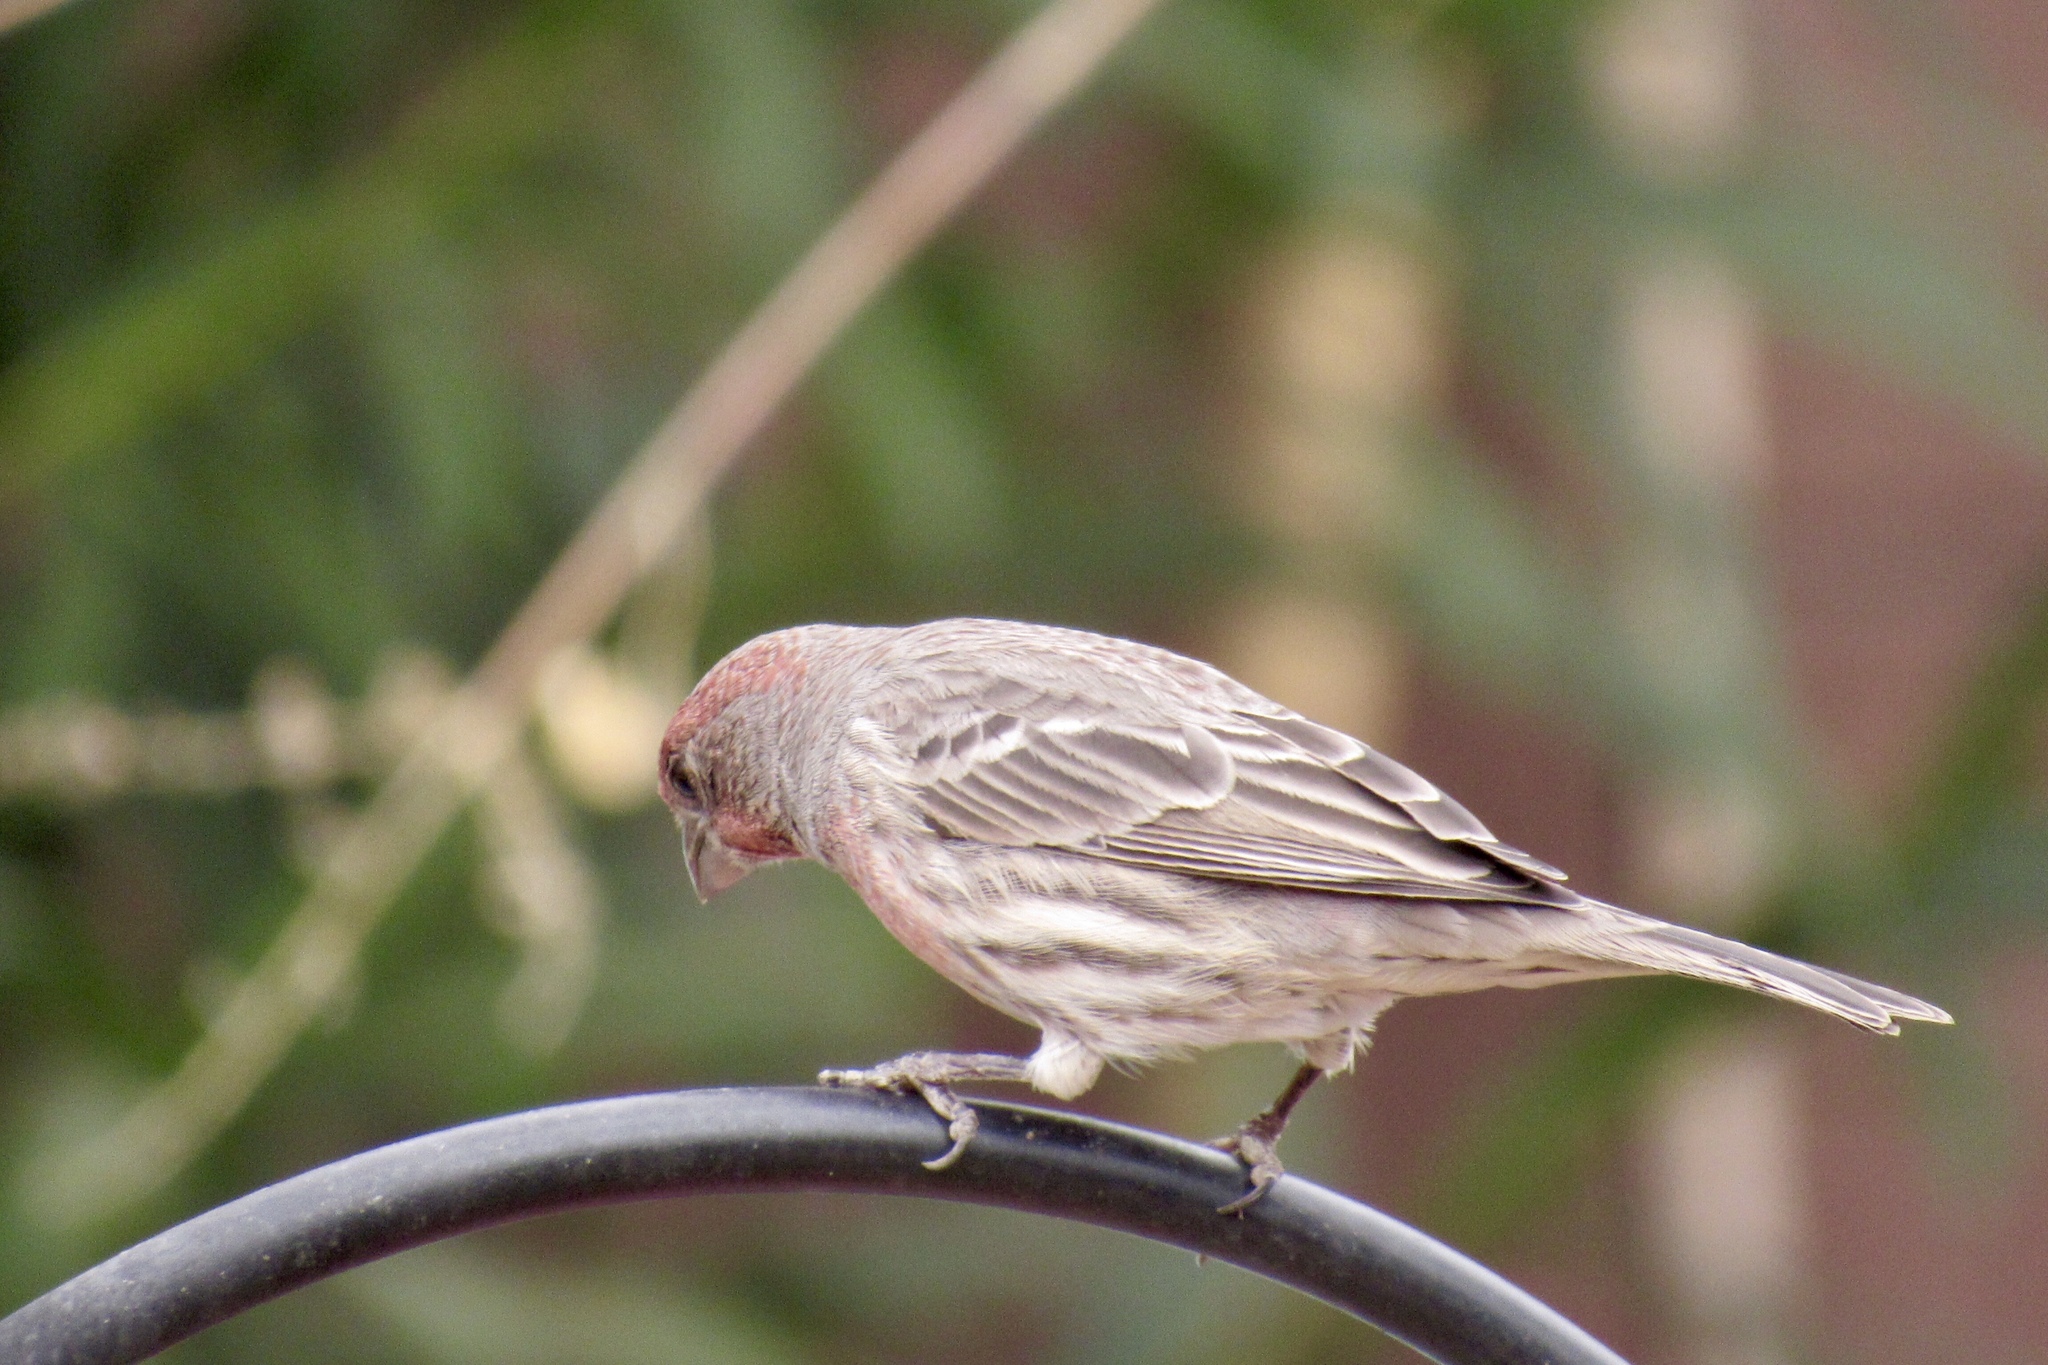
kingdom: Animalia
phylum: Chordata
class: Aves
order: Passeriformes
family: Fringillidae
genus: Haemorhous
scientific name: Haemorhous mexicanus
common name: House finch
